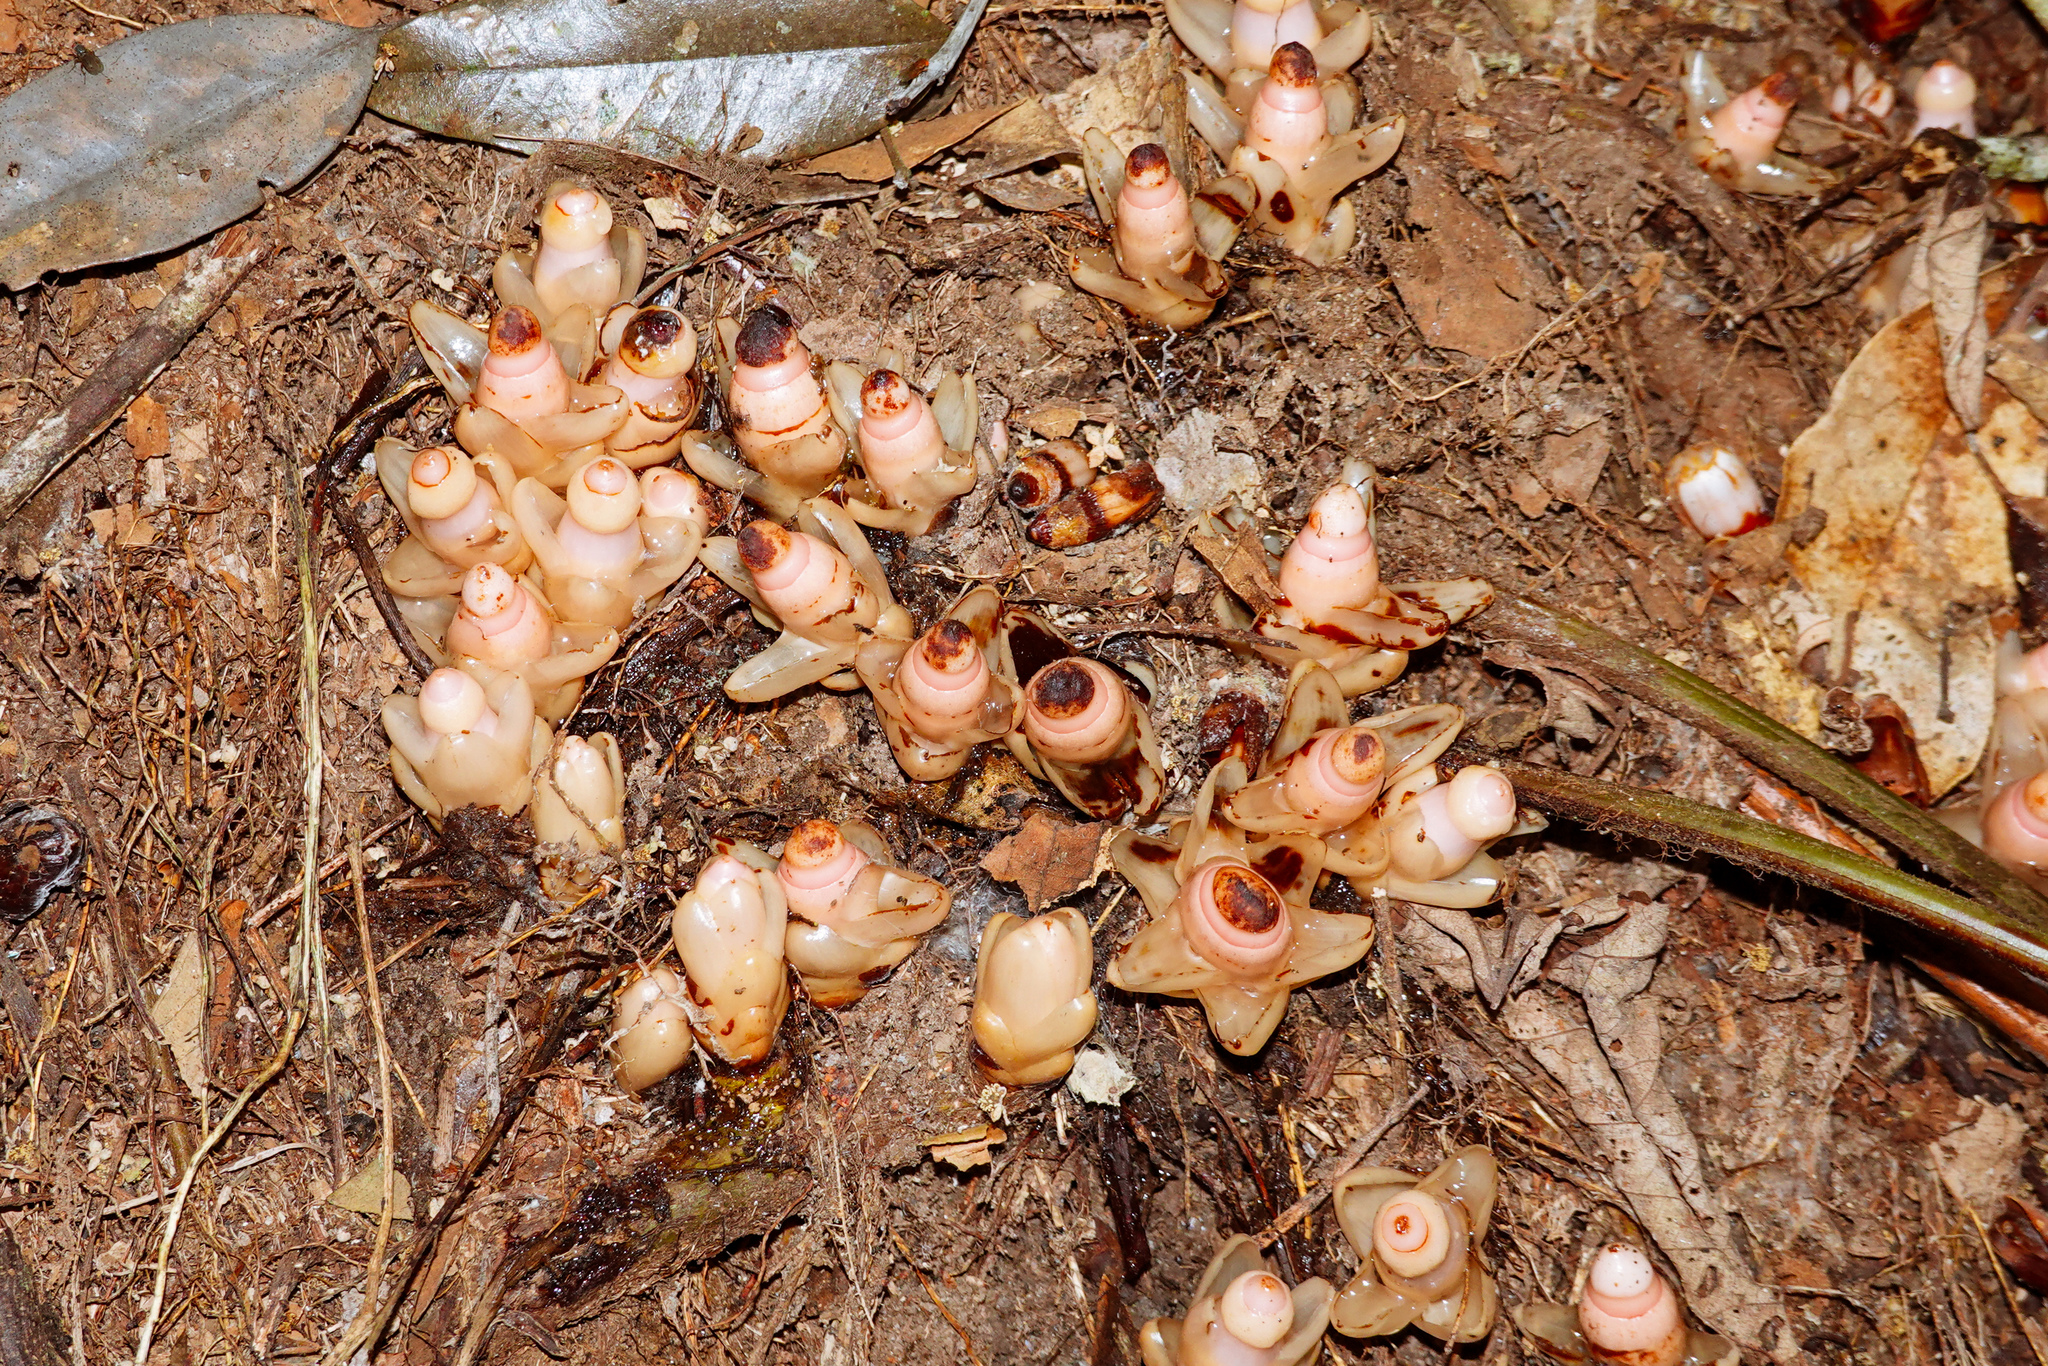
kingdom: Plantae
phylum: Tracheophyta
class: Magnoliopsida
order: Ericales
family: Mitrastemonaceae
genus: Mitrastemon
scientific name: Mitrastemon yamamotoi
